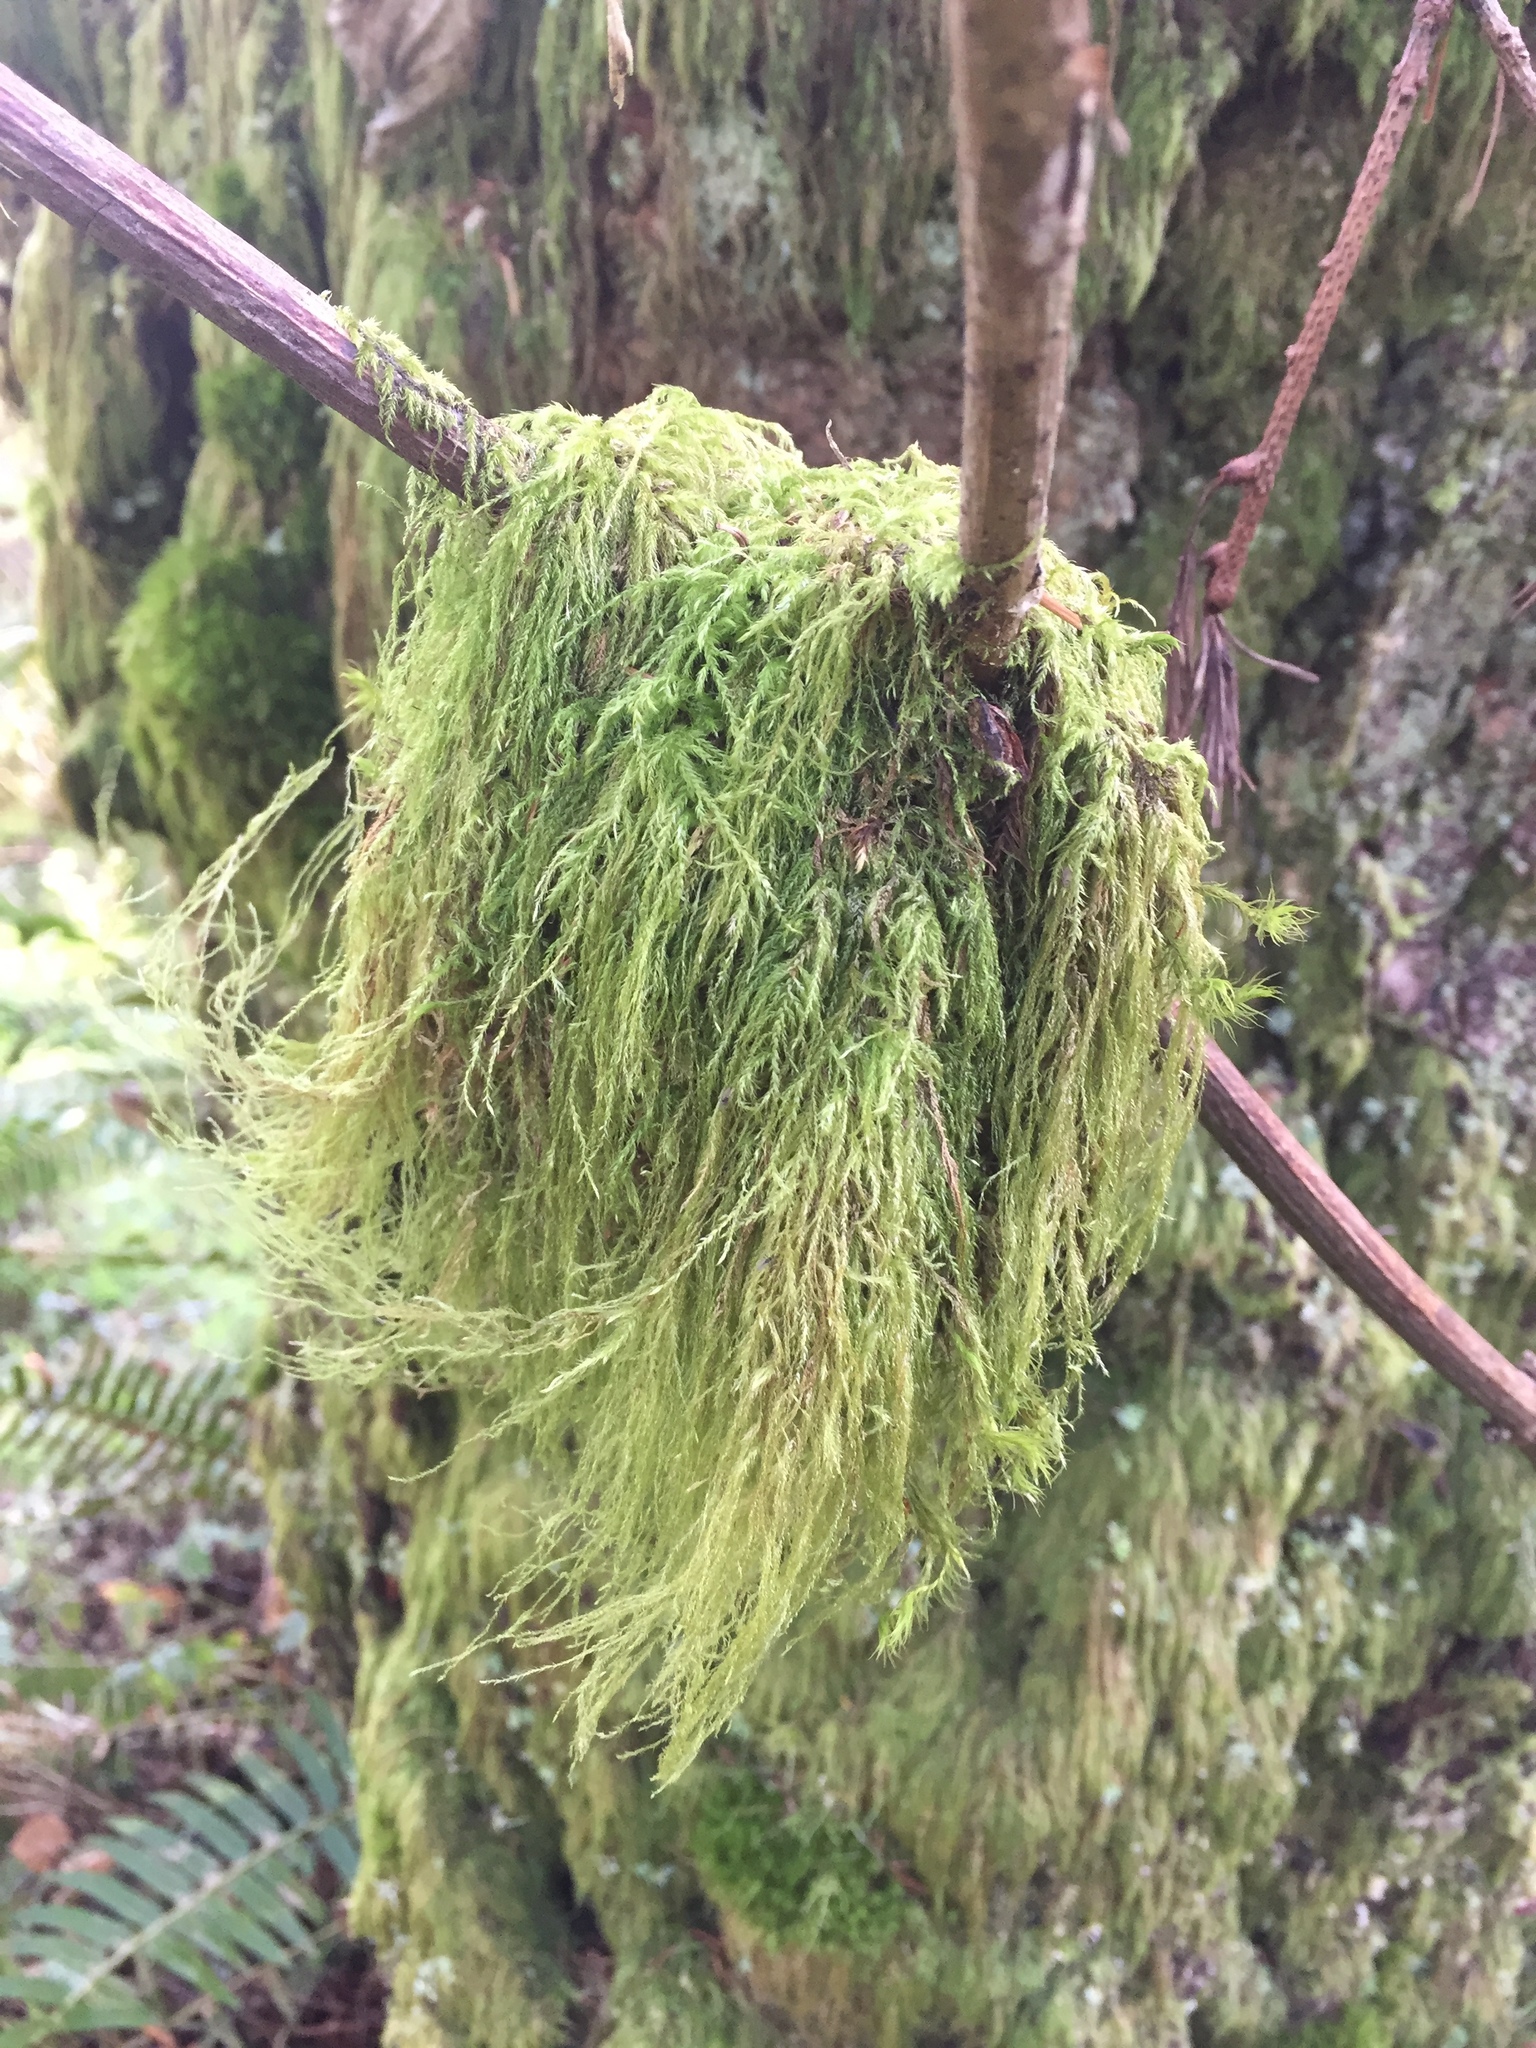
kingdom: Plantae
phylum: Bryophyta
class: Bryopsida
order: Hypnales
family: Lembophyllaceae
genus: Pseudisothecium
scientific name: Pseudisothecium stoloniferum
